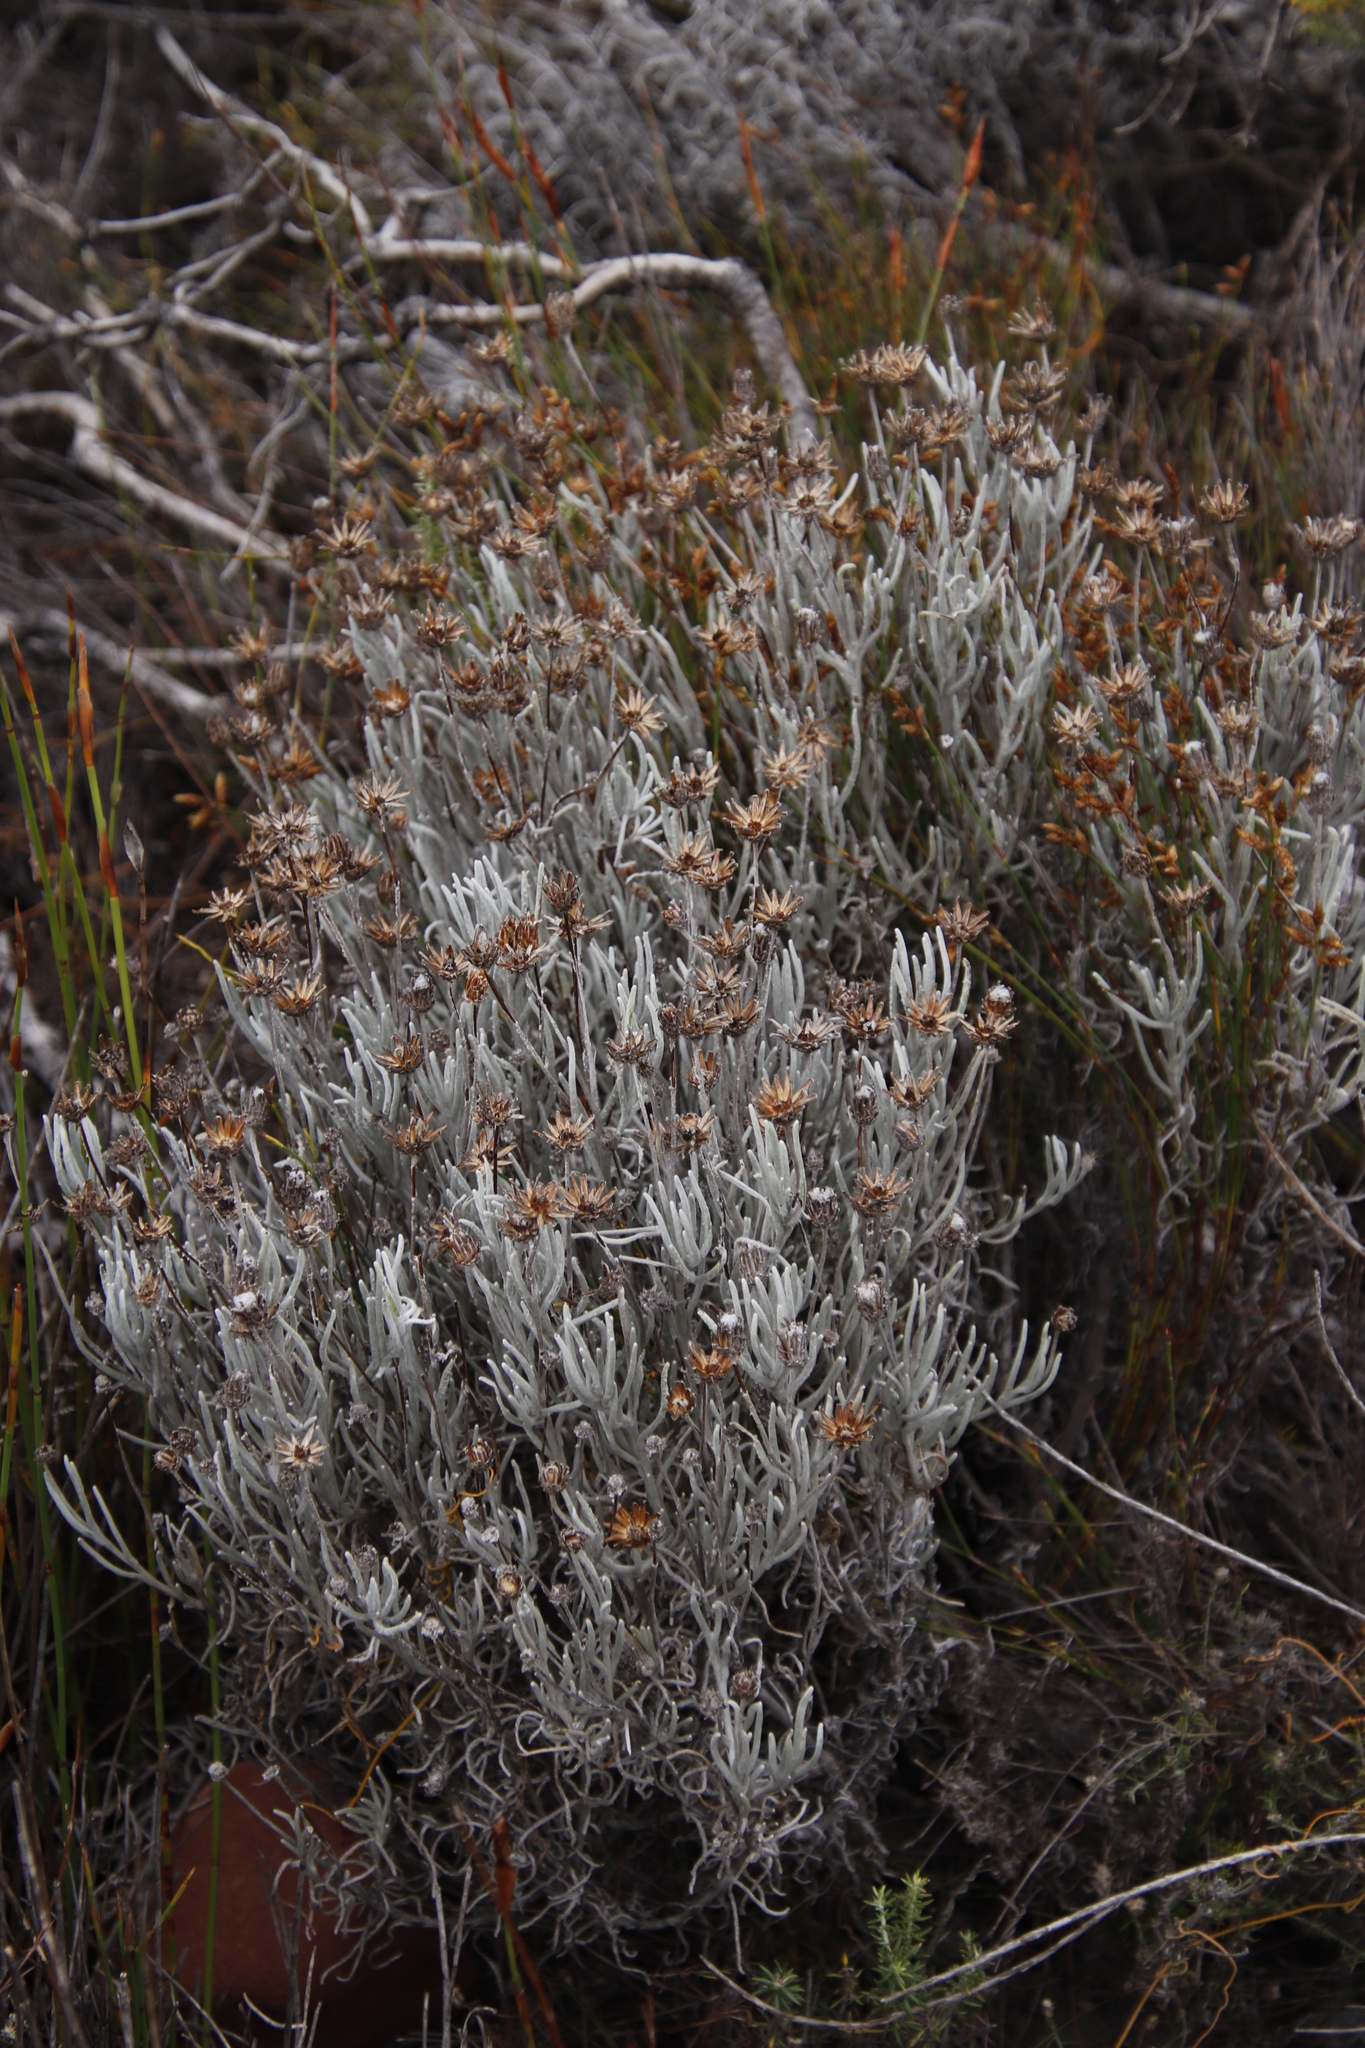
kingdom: Plantae
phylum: Tracheophyta
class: Magnoliopsida
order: Asterales
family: Asteraceae
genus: Syncarpha
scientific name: Syncarpha gnaphaloides
